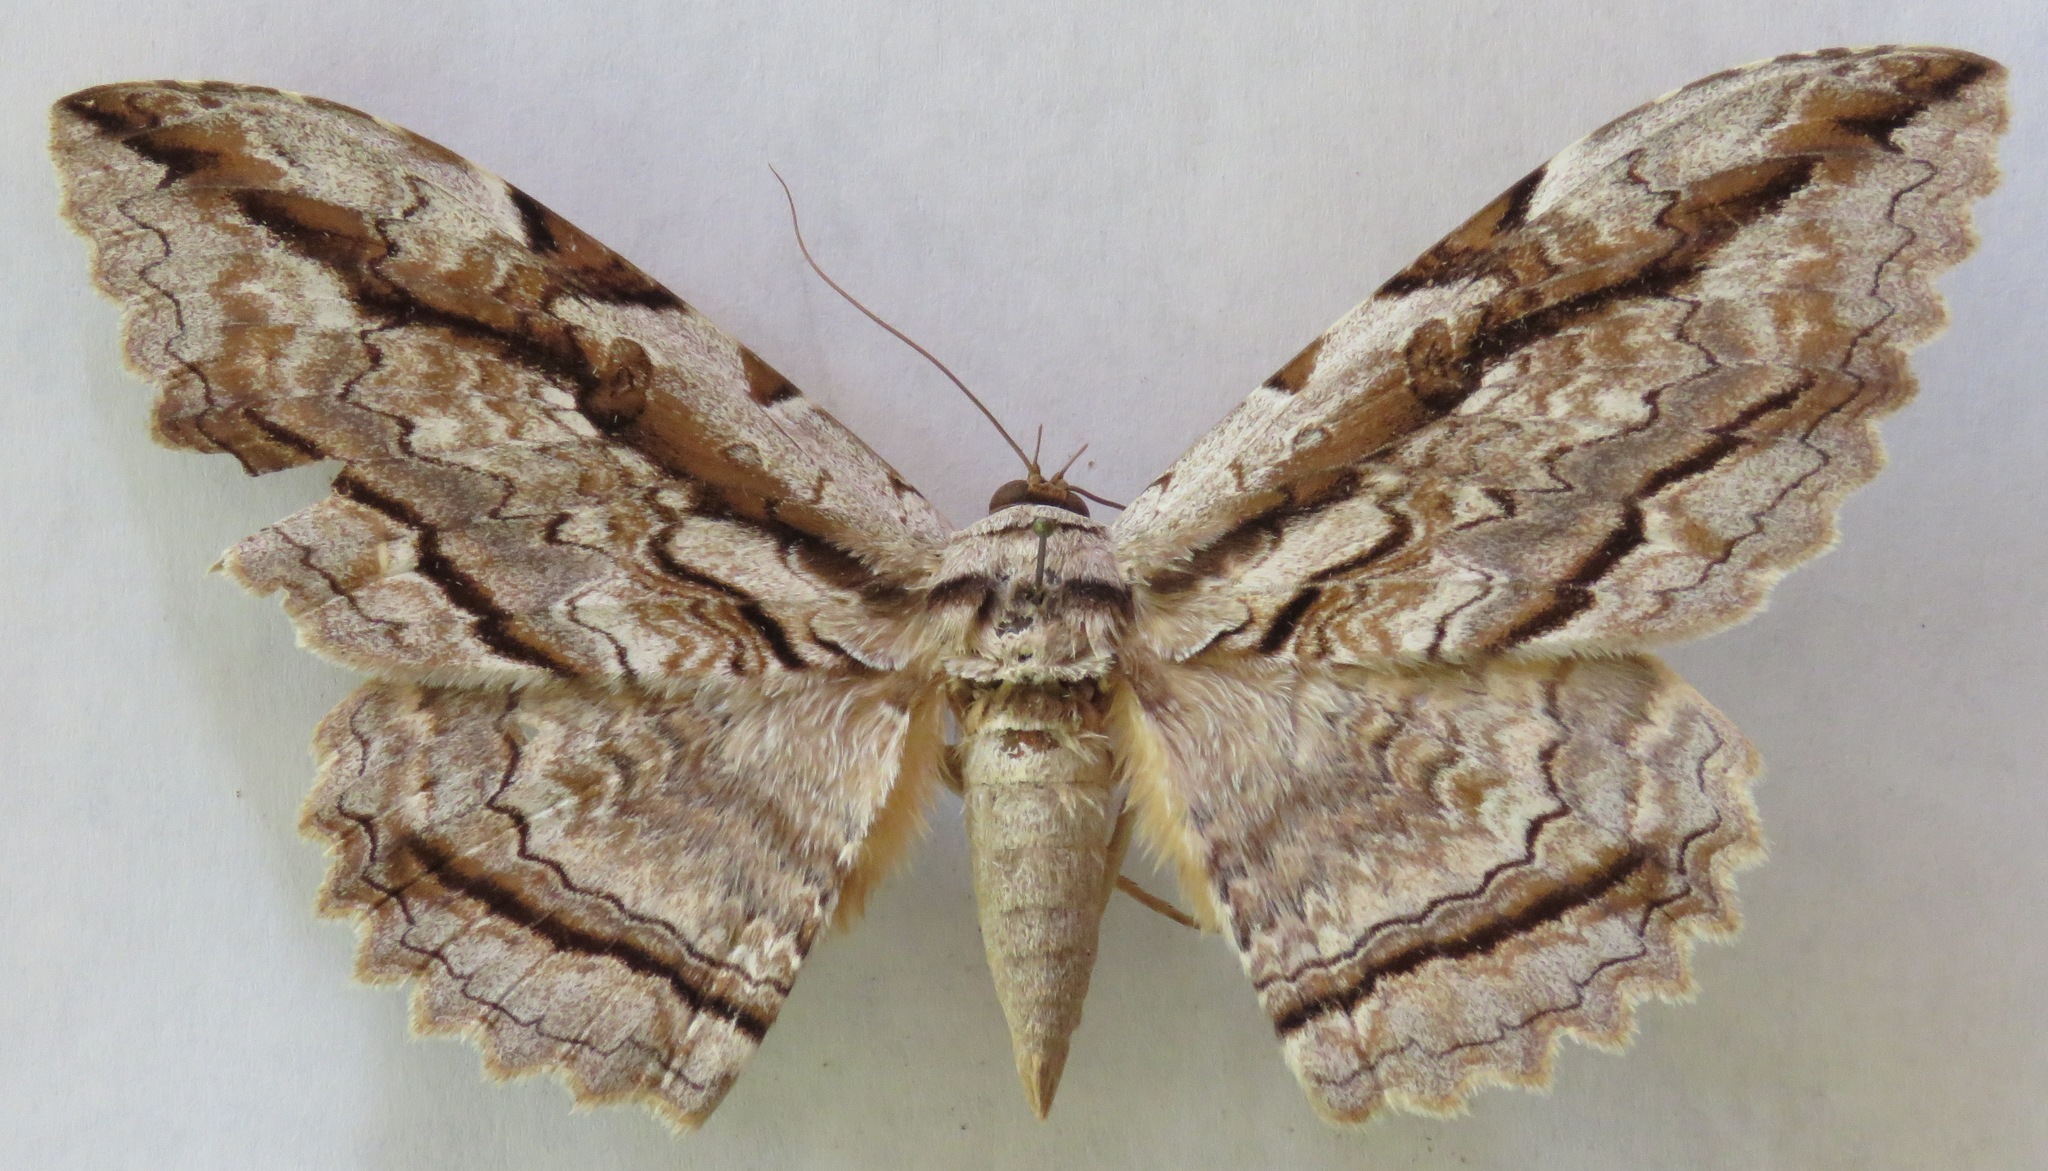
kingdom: Animalia
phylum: Arthropoda
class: Insecta
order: Lepidoptera
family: Erebidae
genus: Thysania
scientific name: Thysania zenobia
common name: Owl moth
